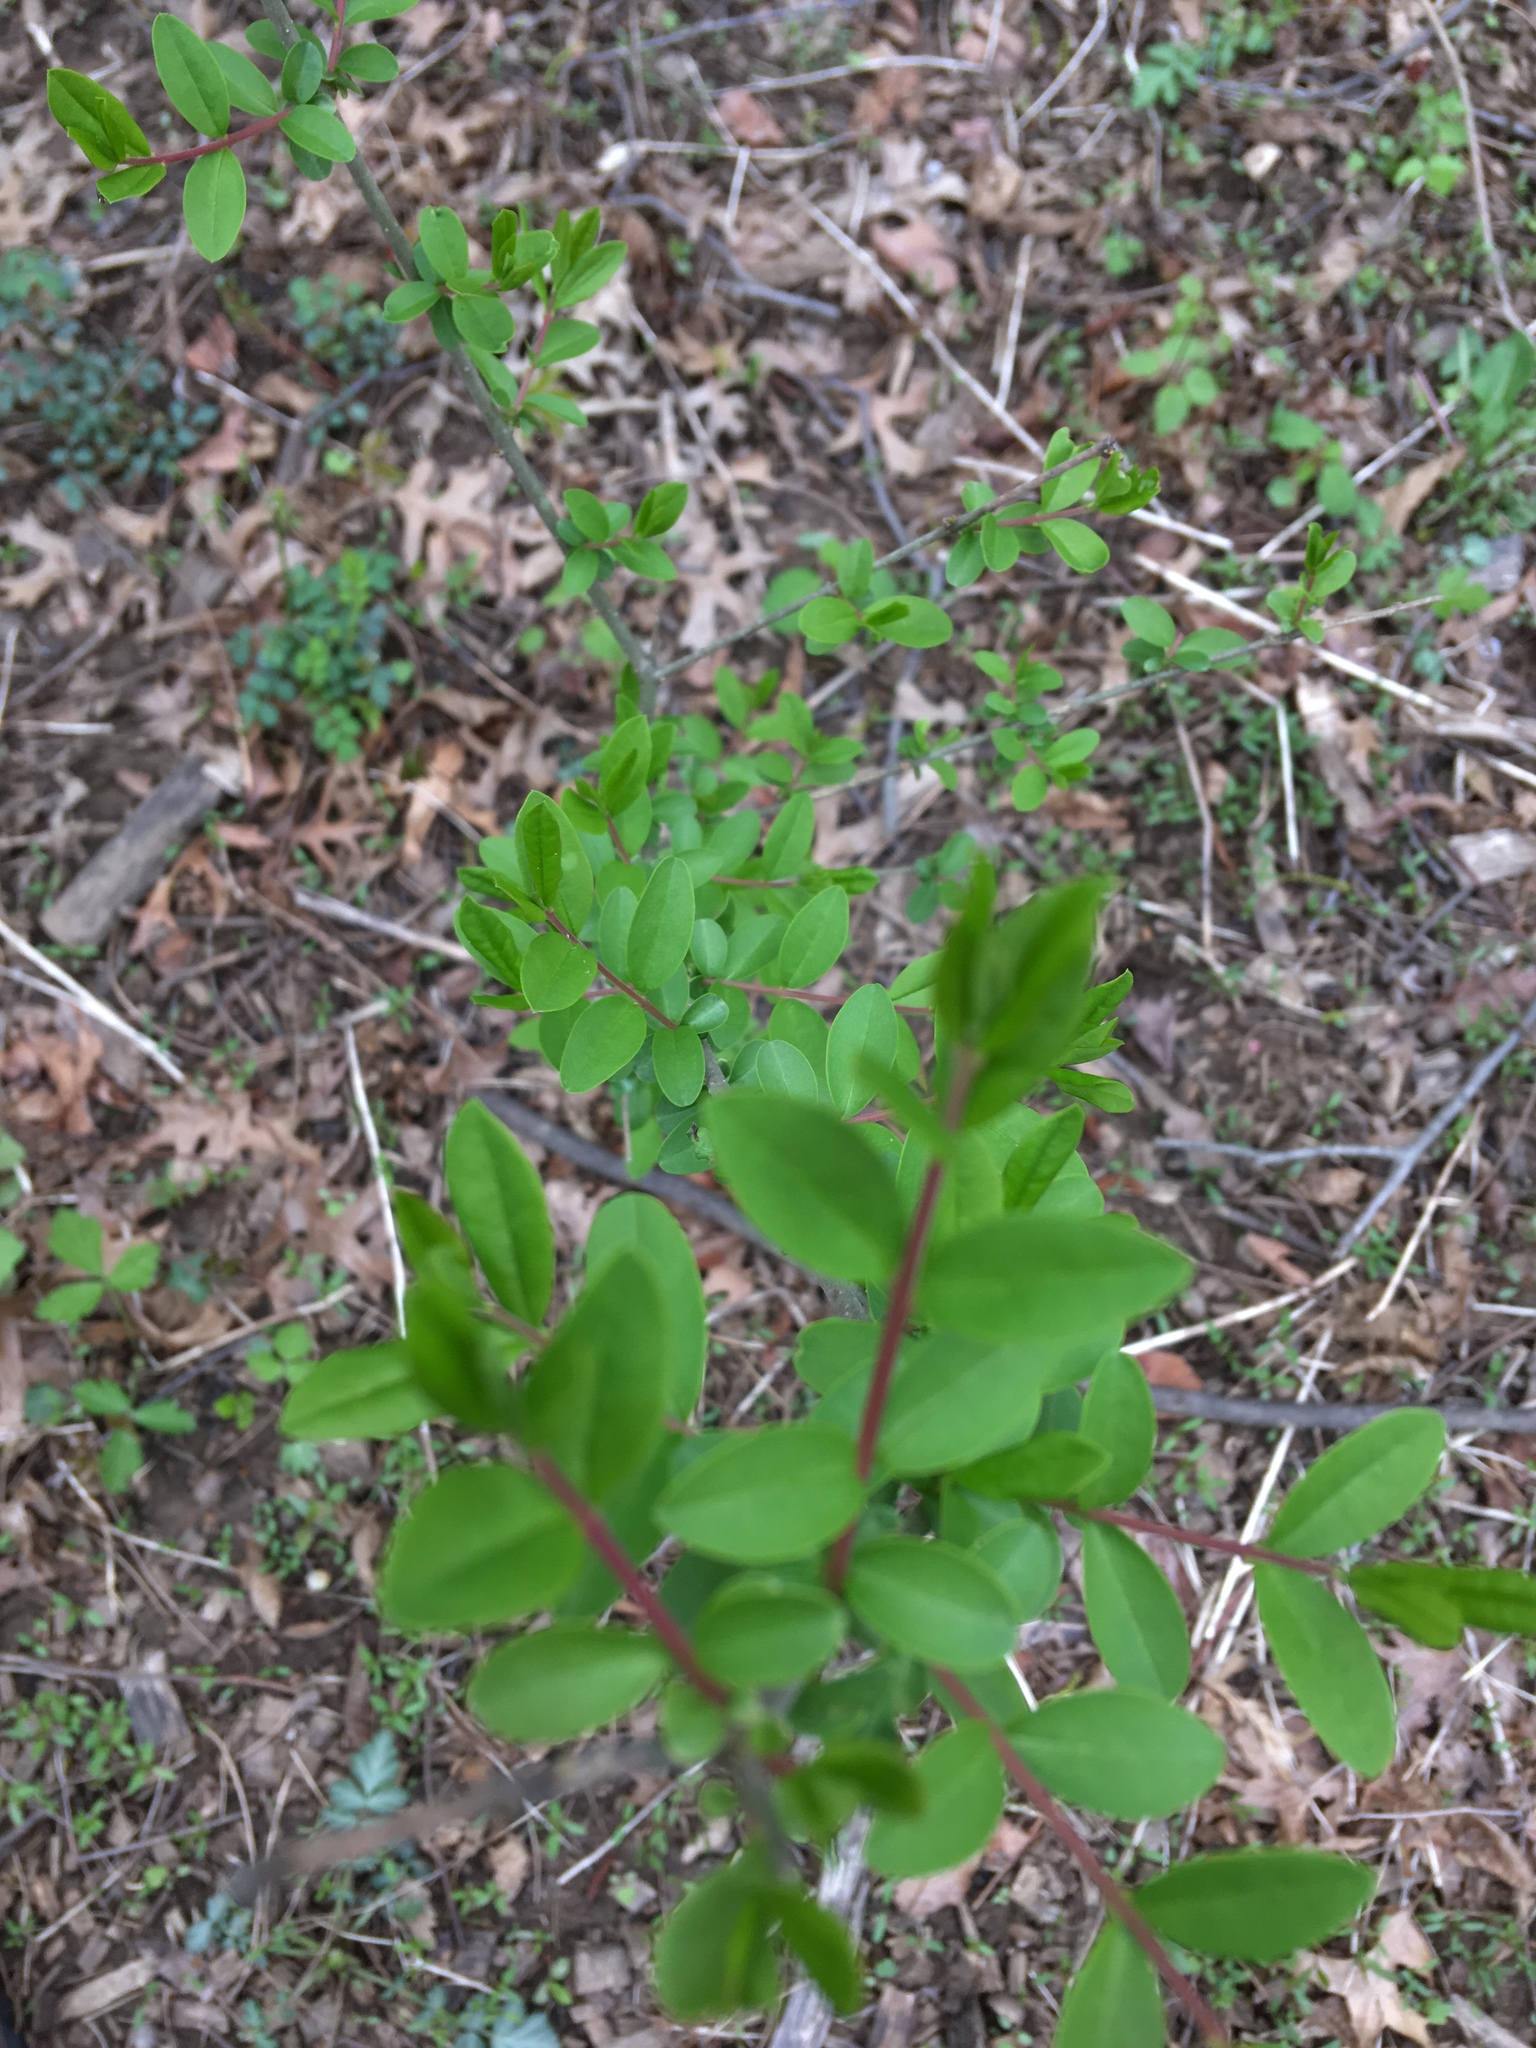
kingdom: Plantae
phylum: Tracheophyta
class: Magnoliopsida
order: Lamiales
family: Oleaceae
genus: Ligustrum
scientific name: Ligustrum obtusifolium
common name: Border privet
